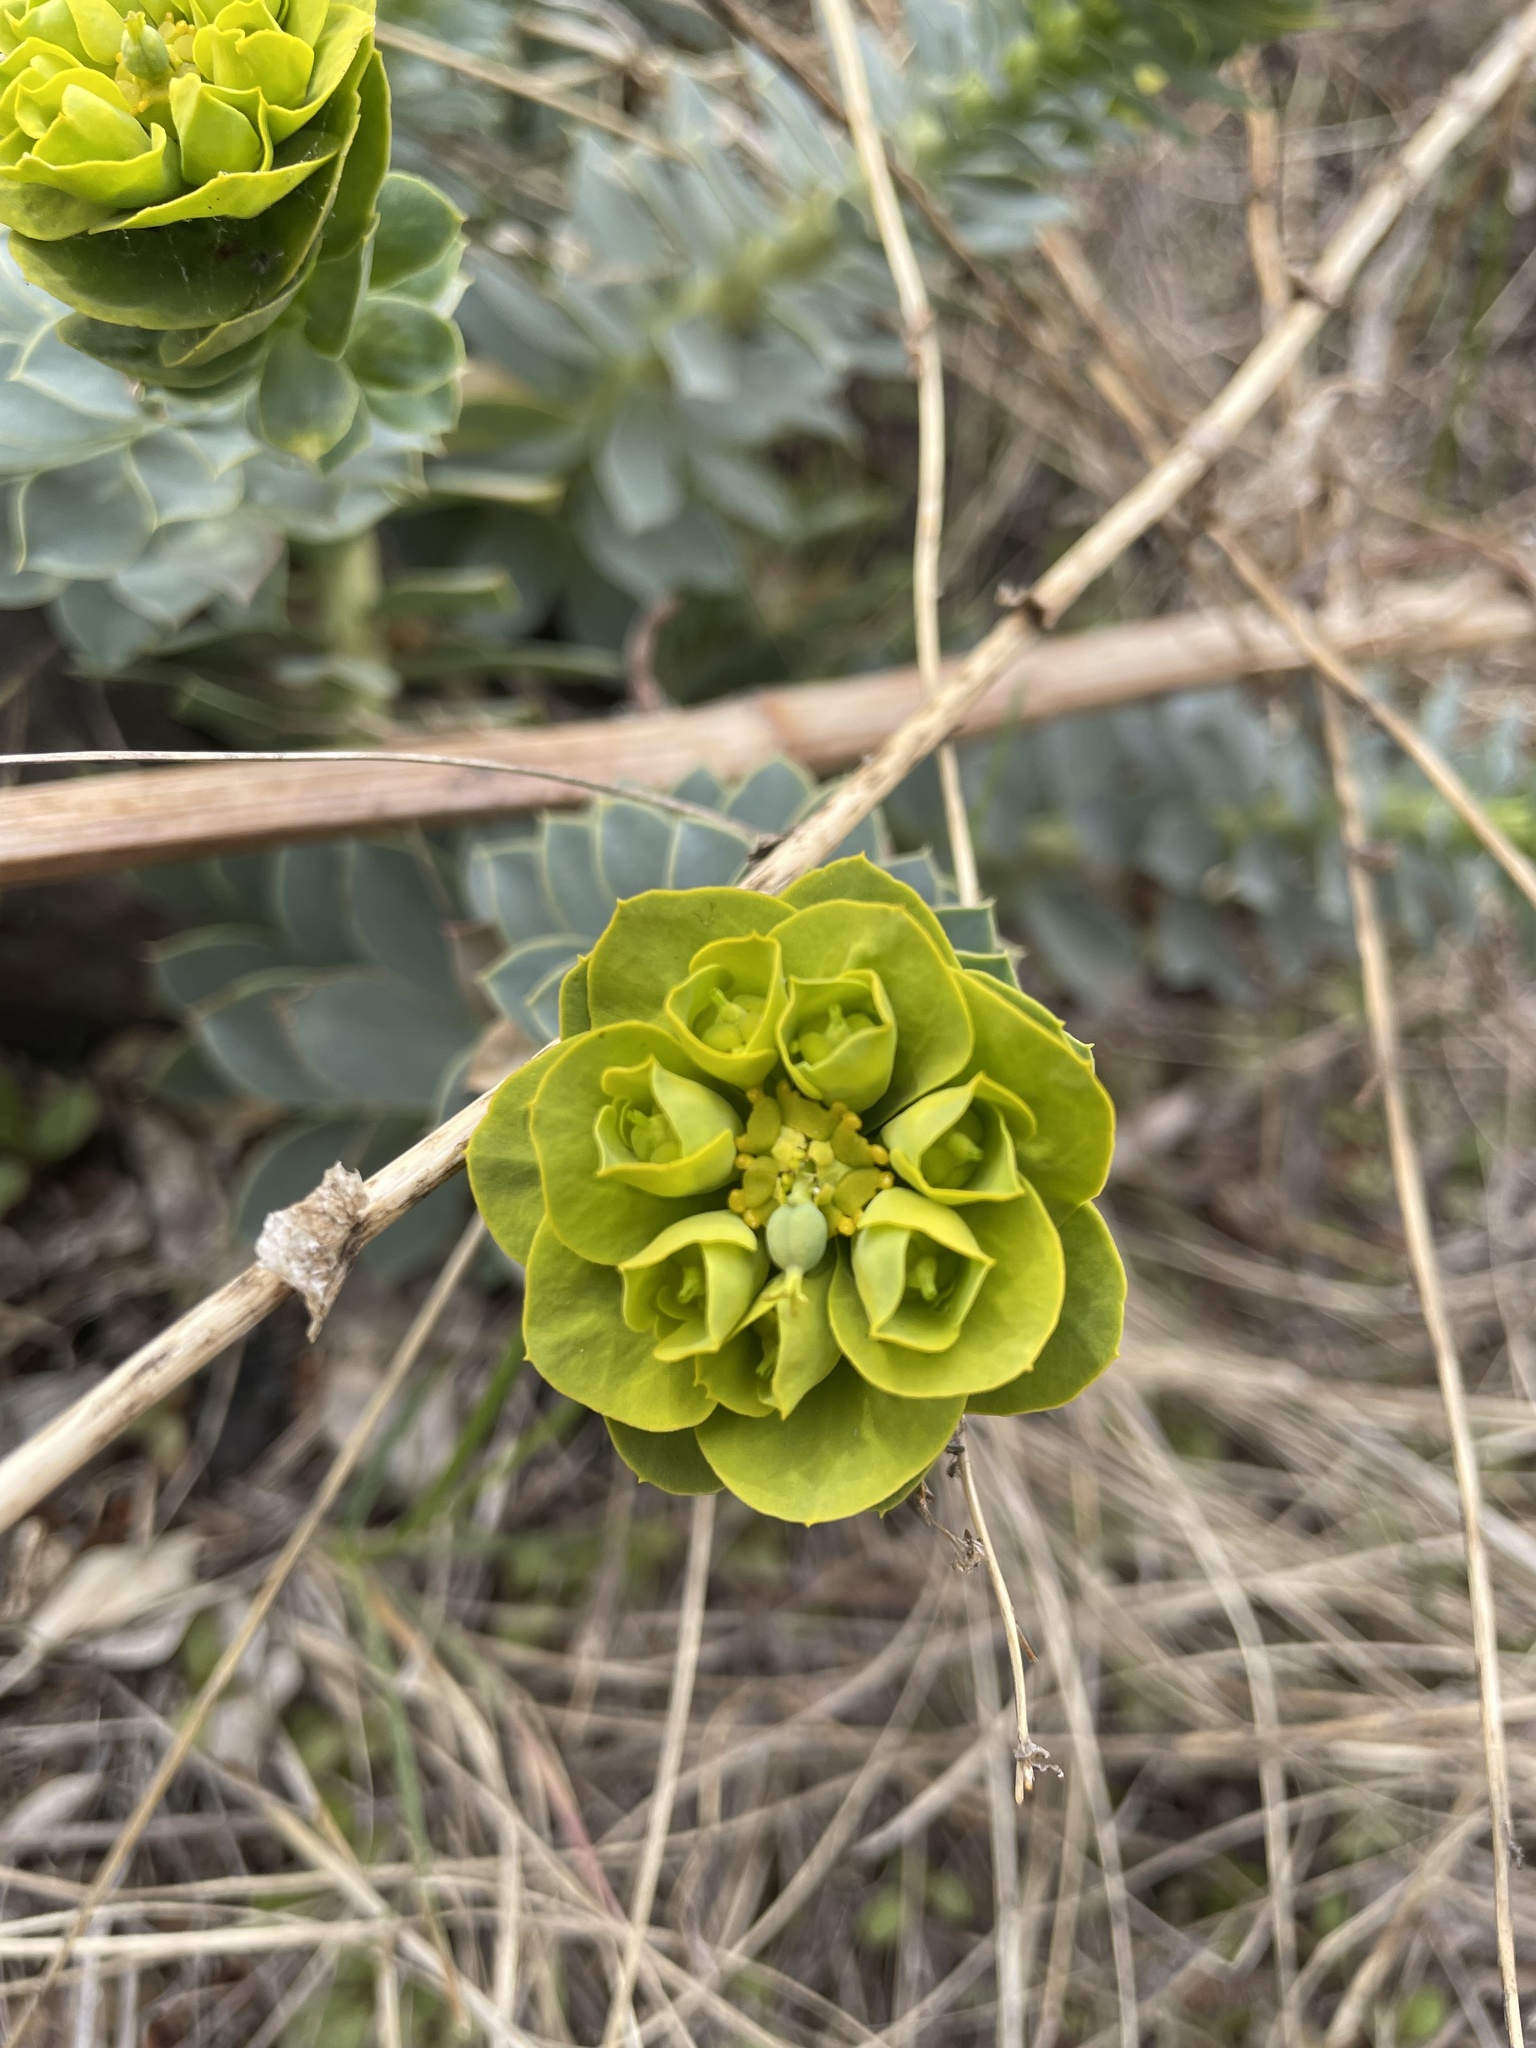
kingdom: Plantae
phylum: Tracheophyta
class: Magnoliopsida
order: Malpighiales
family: Euphorbiaceae
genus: Euphorbia
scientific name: Euphorbia myrsinites
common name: Myrtle spurge
